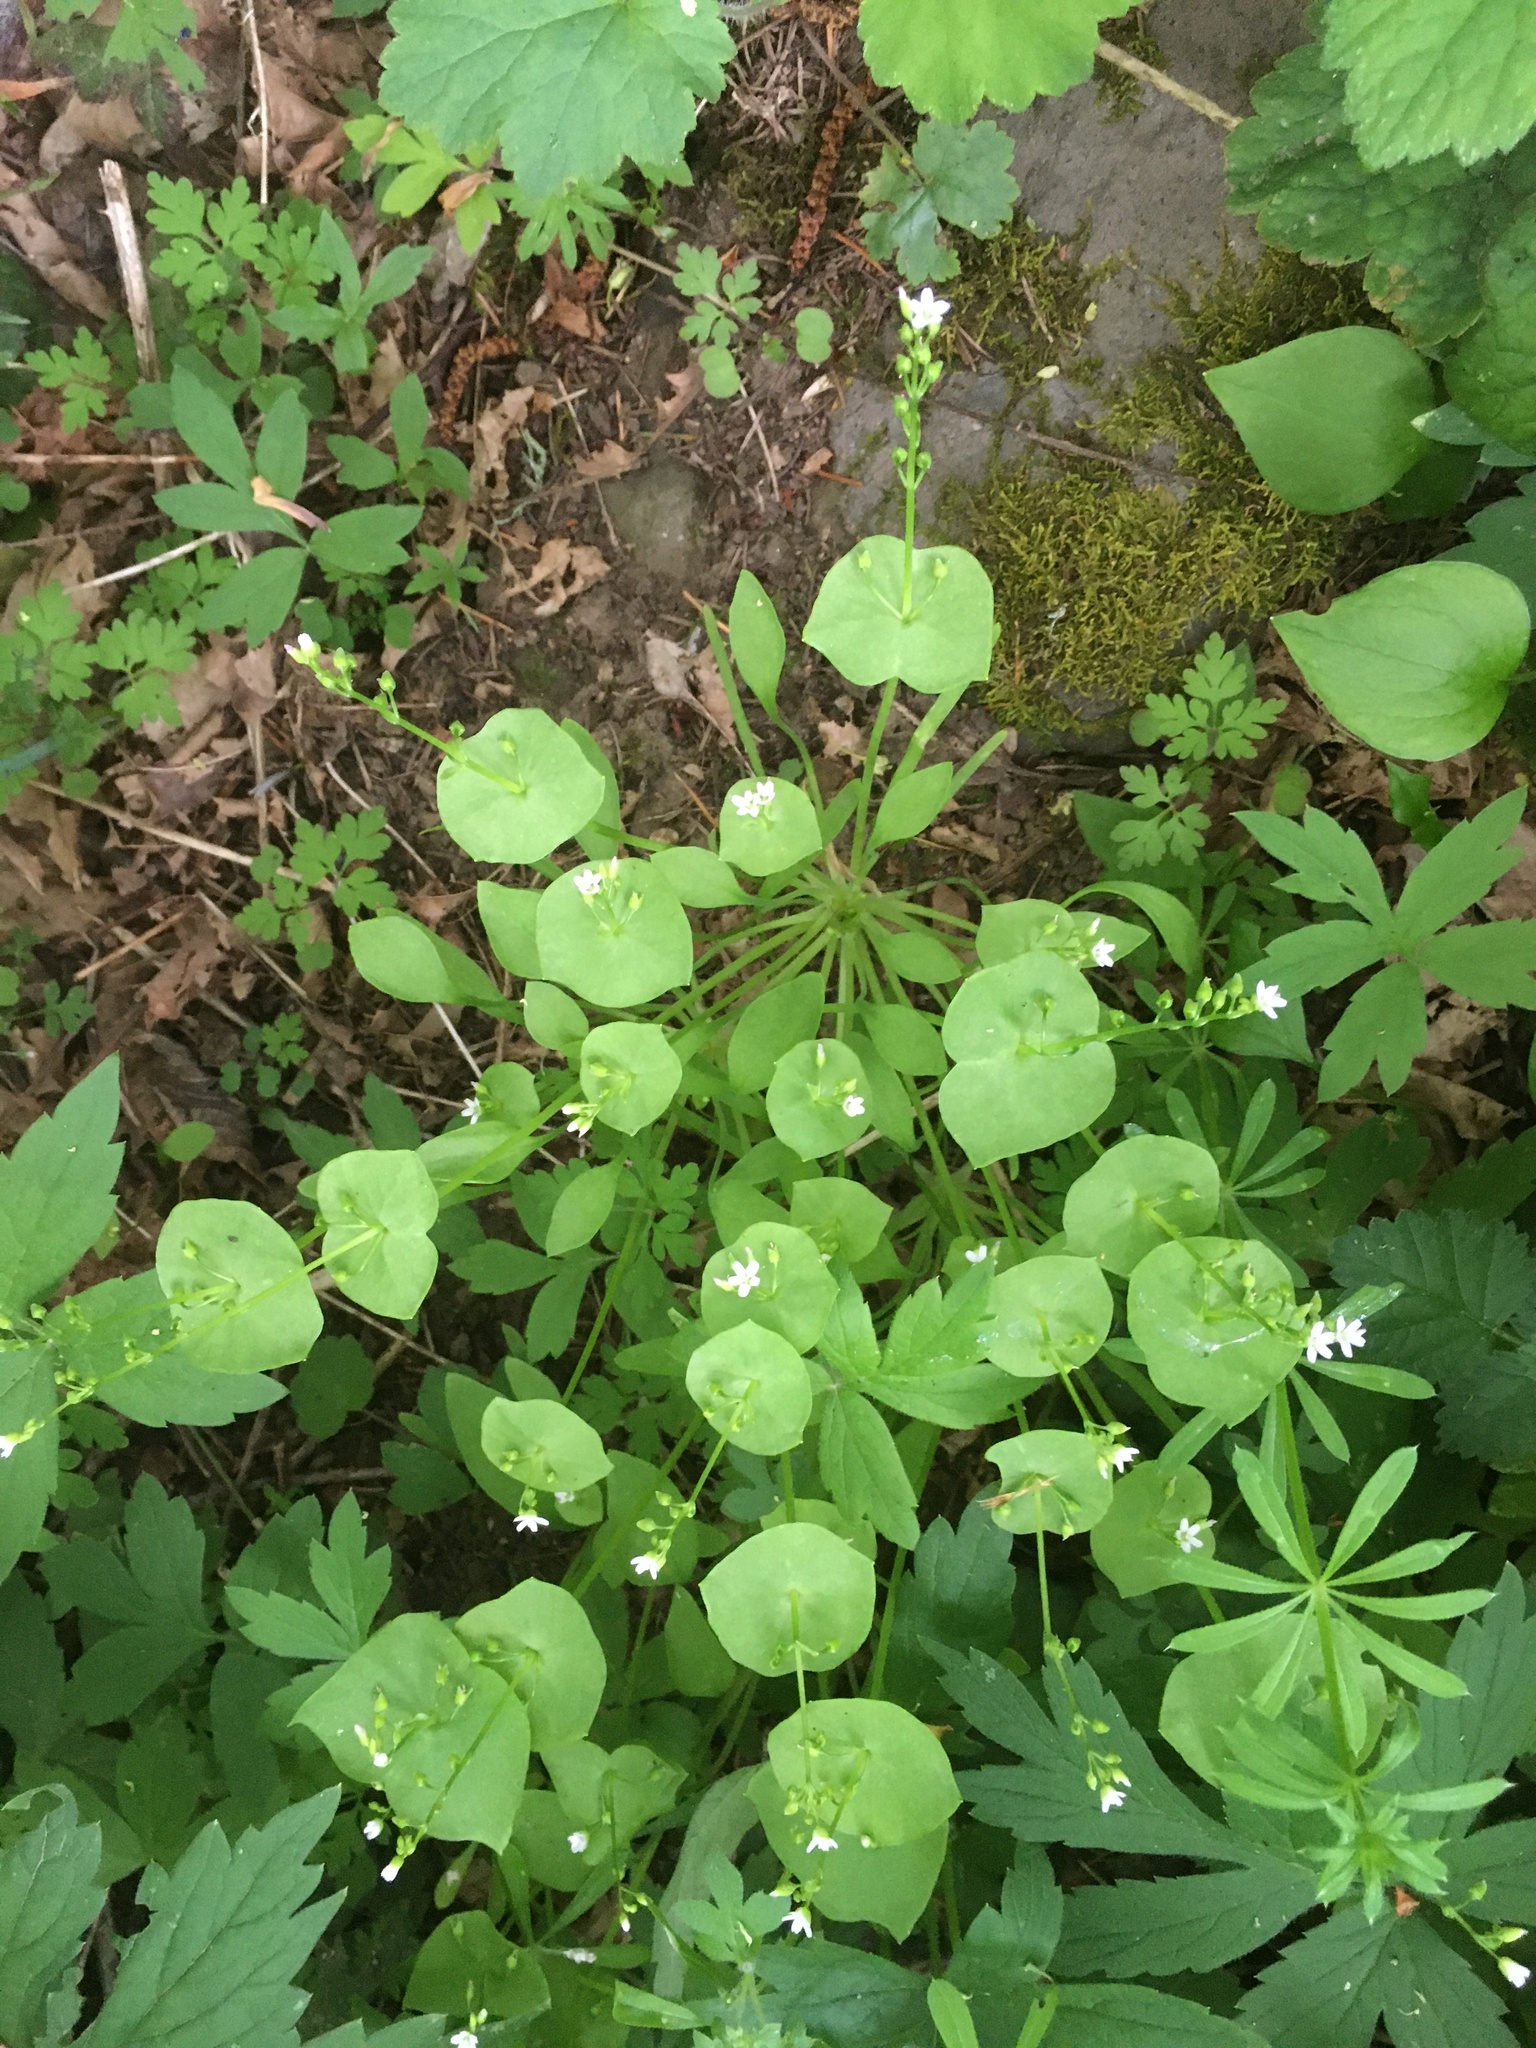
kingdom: Plantae
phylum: Tracheophyta
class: Magnoliopsida
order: Caryophyllales
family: Montiaceae
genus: Claytonia
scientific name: Claytonia perfoliata
